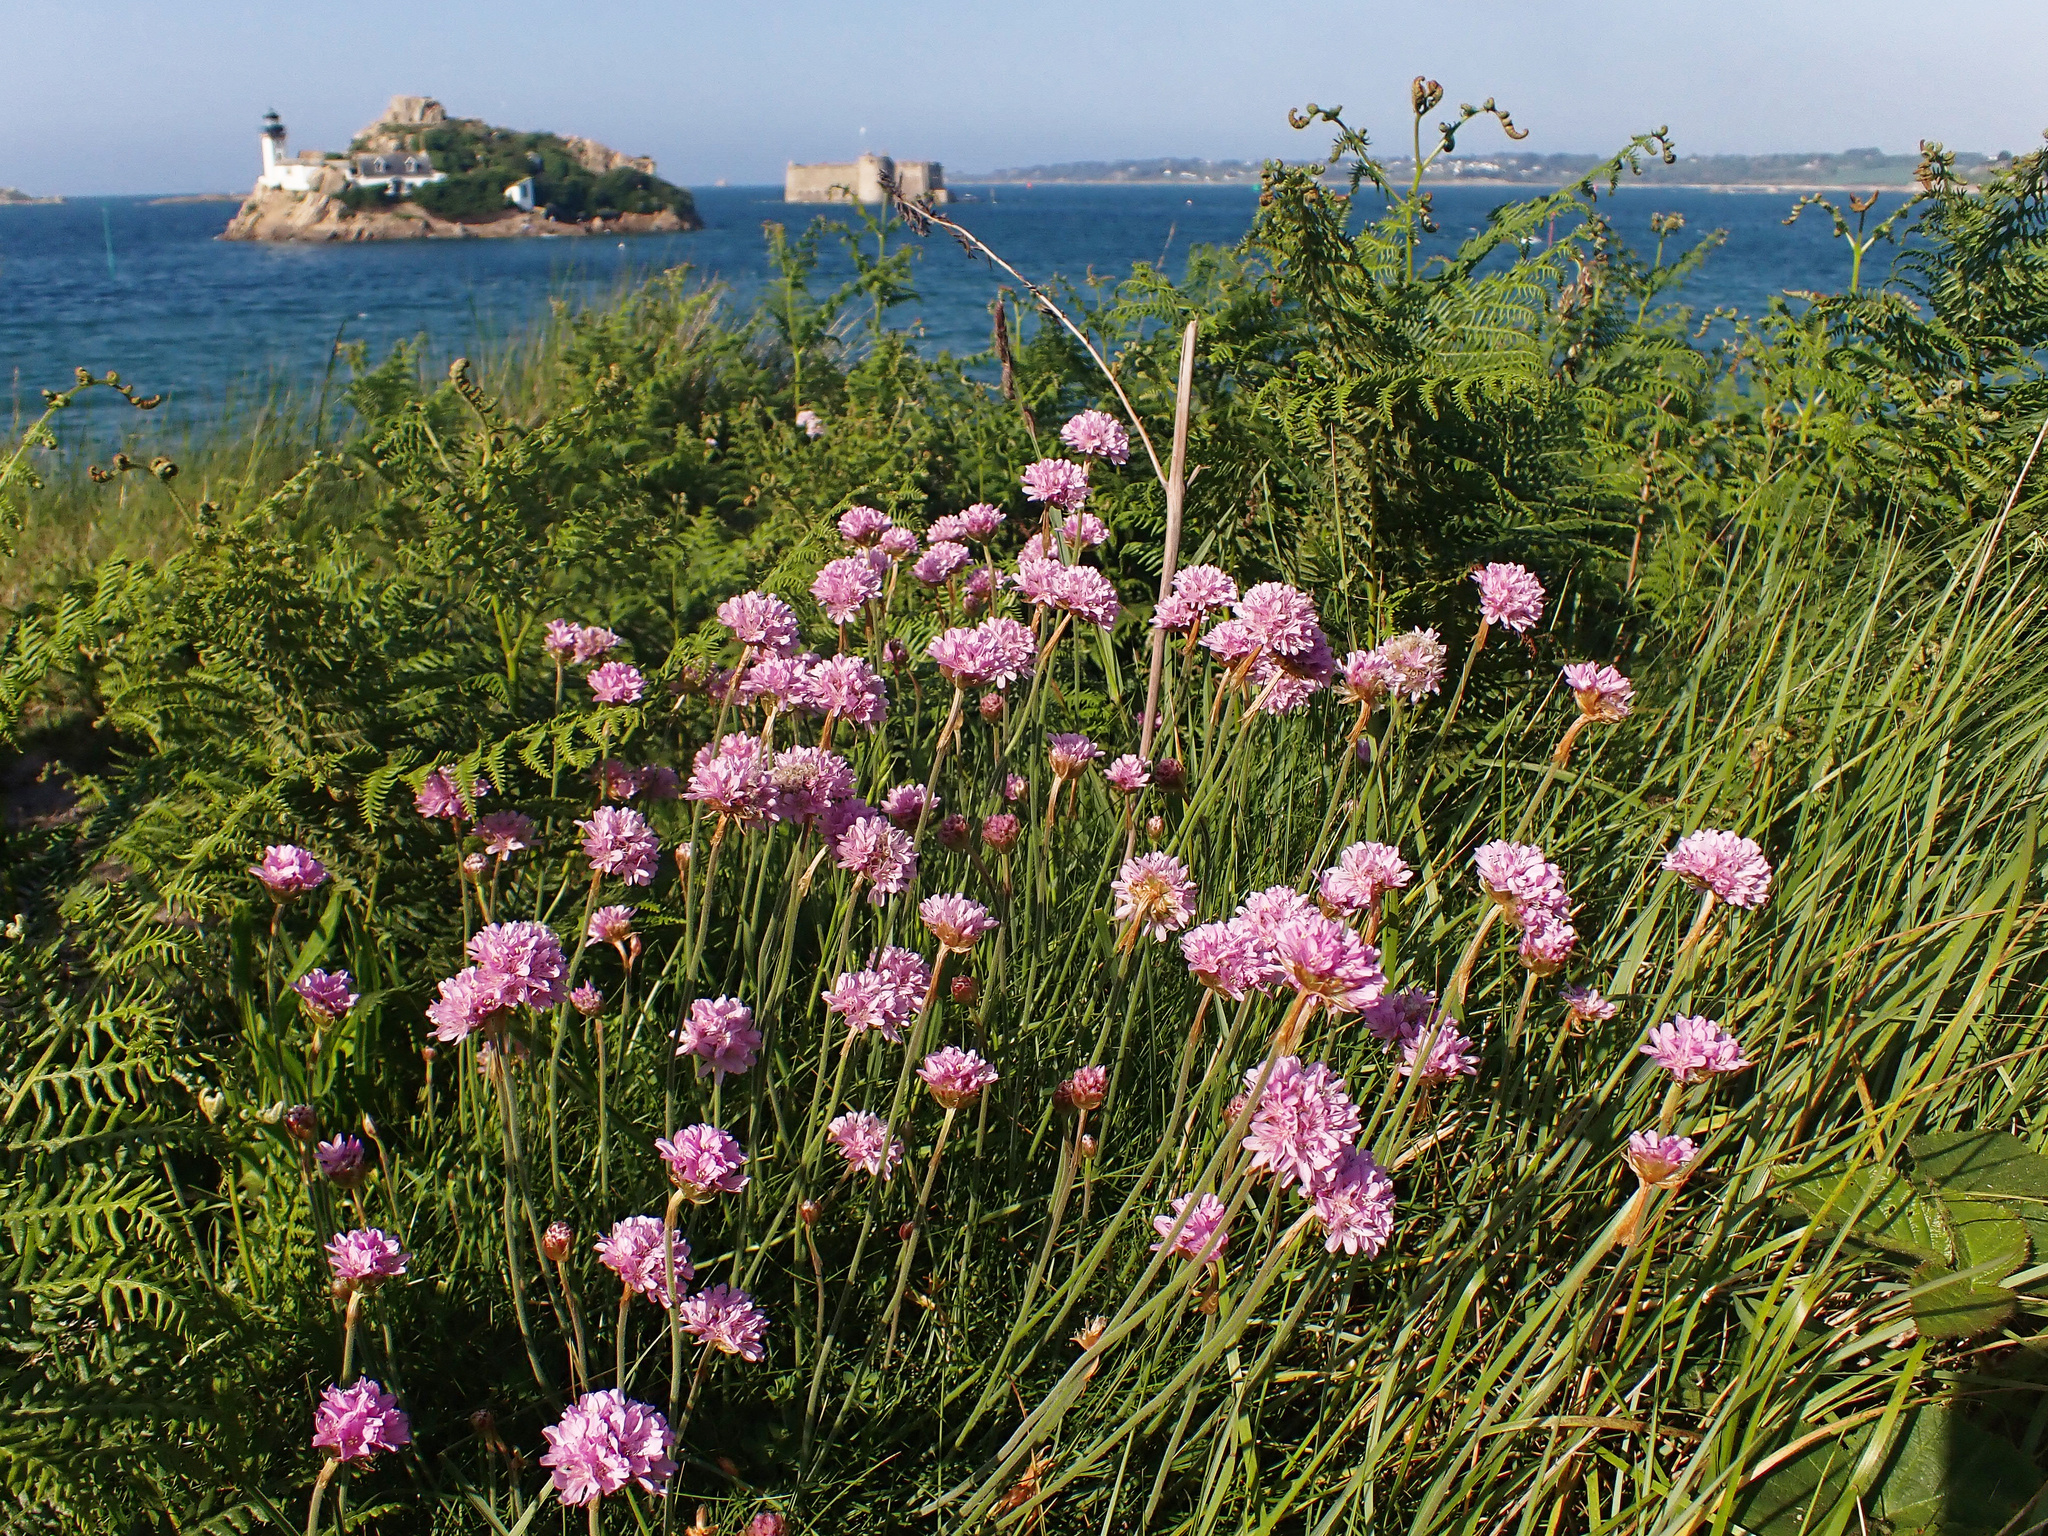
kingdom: Plantae
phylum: Tracheophyta
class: Magnoliopsida
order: Caryophyllales
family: Plumbaginaceae
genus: Armeria
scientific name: Armeria maritima
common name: Thrift
